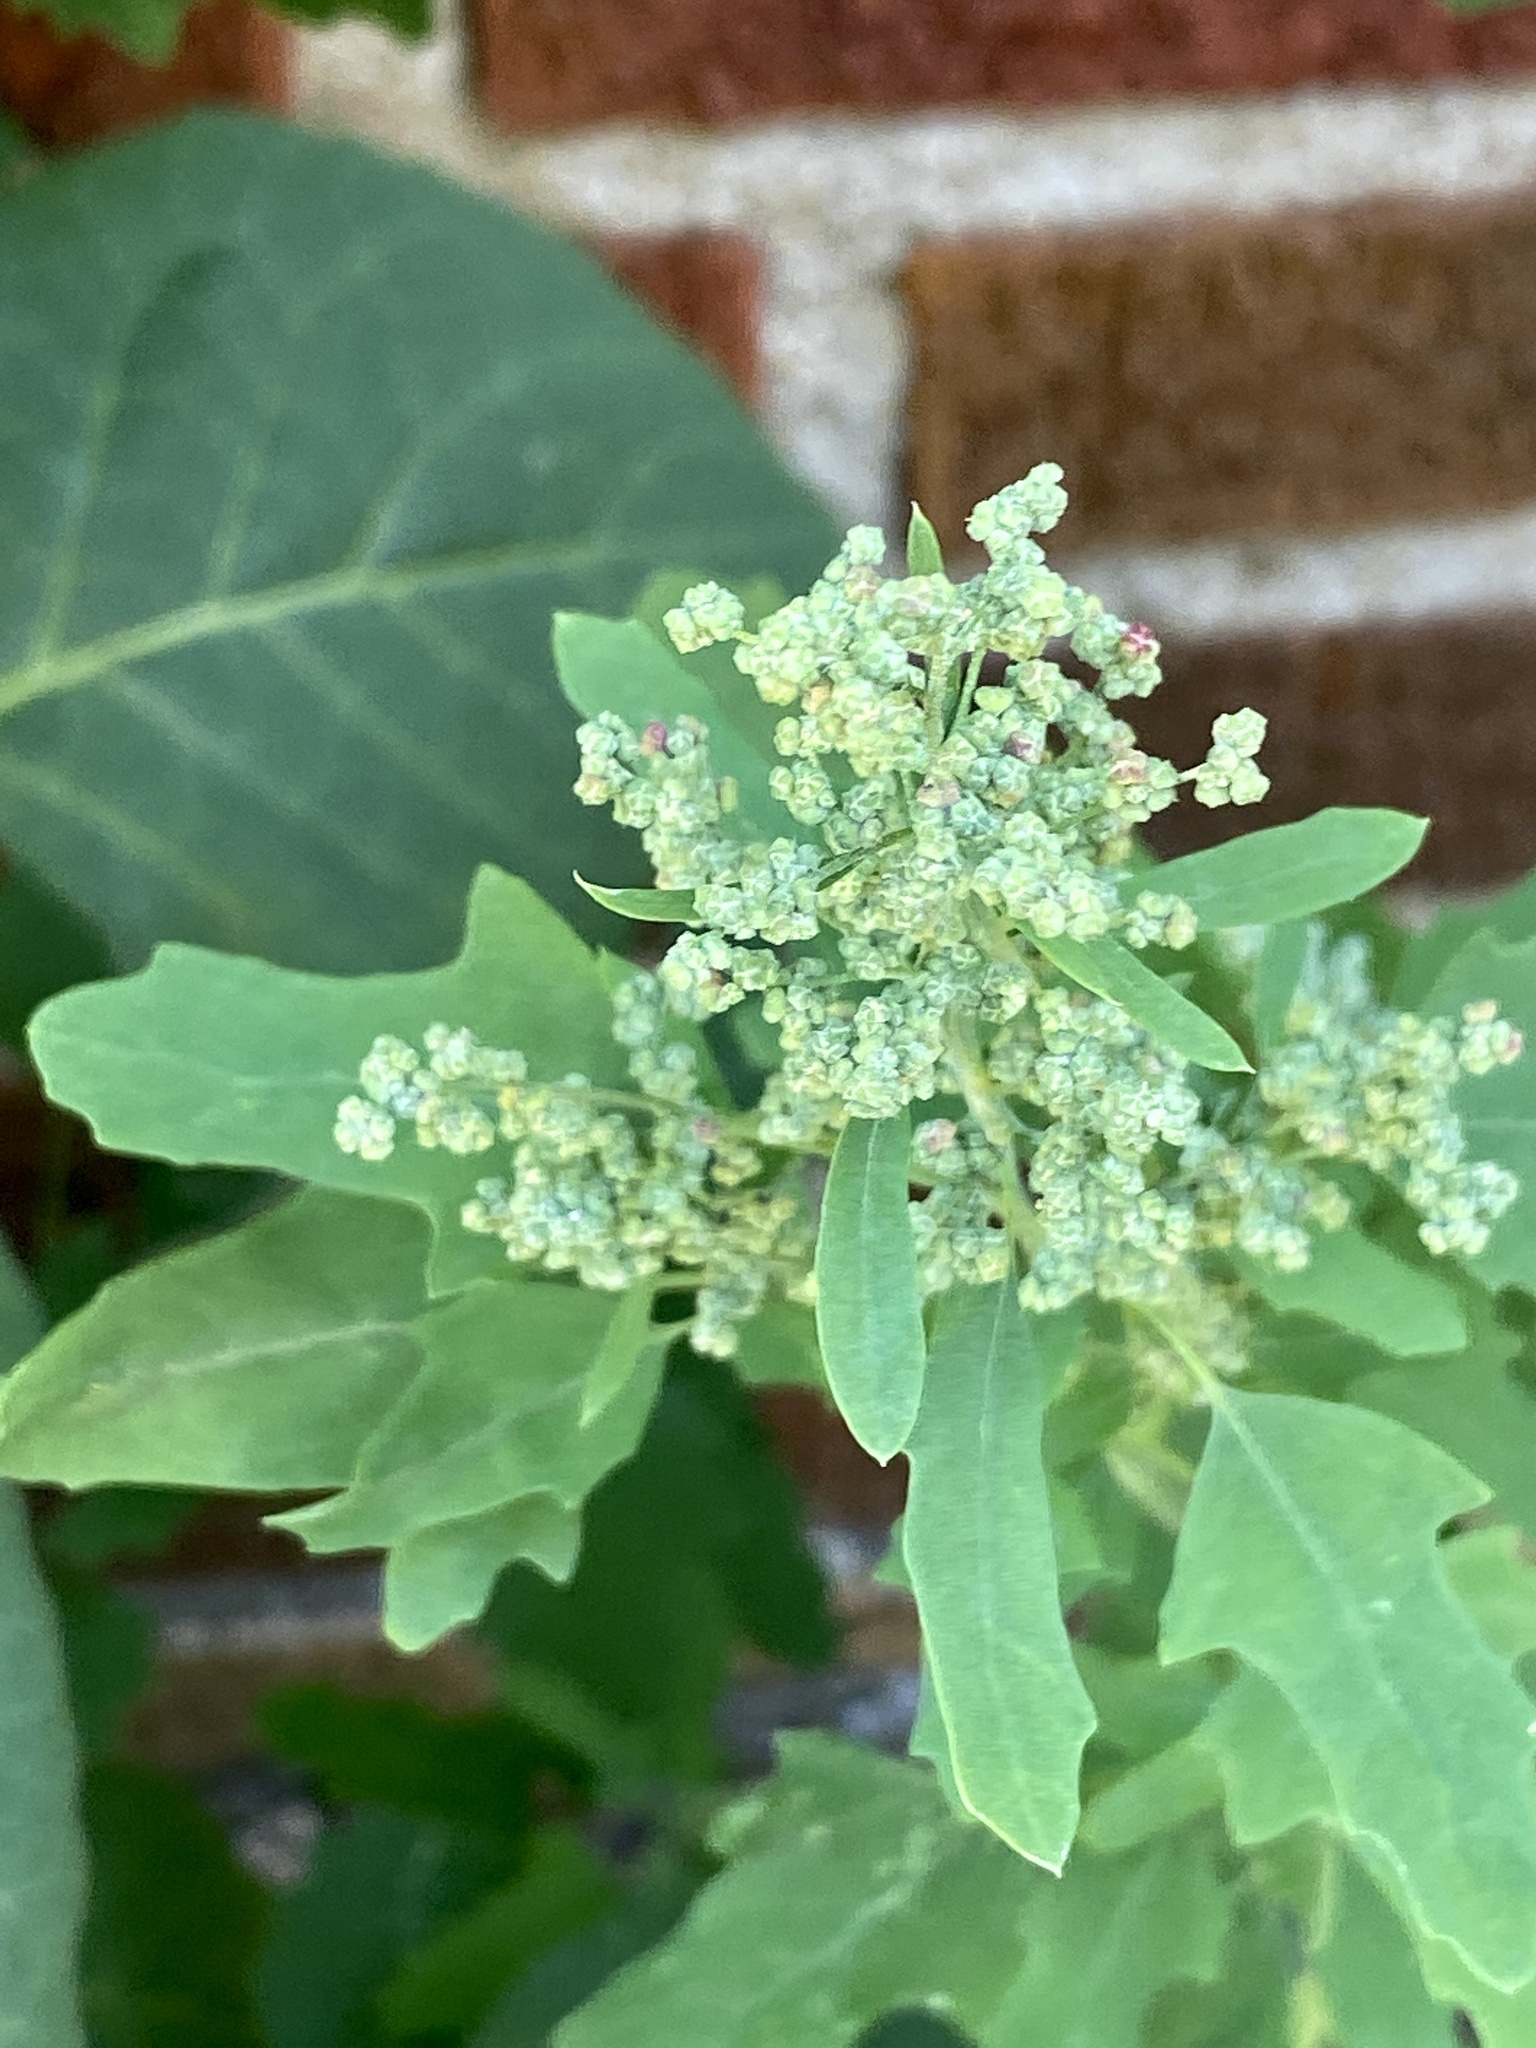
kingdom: Plantae
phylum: Tracheophyta
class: Magnoliopsida
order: Caryophyllales
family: Amaranthaceae
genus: Chenopodium
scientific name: Chenopodium album
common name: Fat-hen
